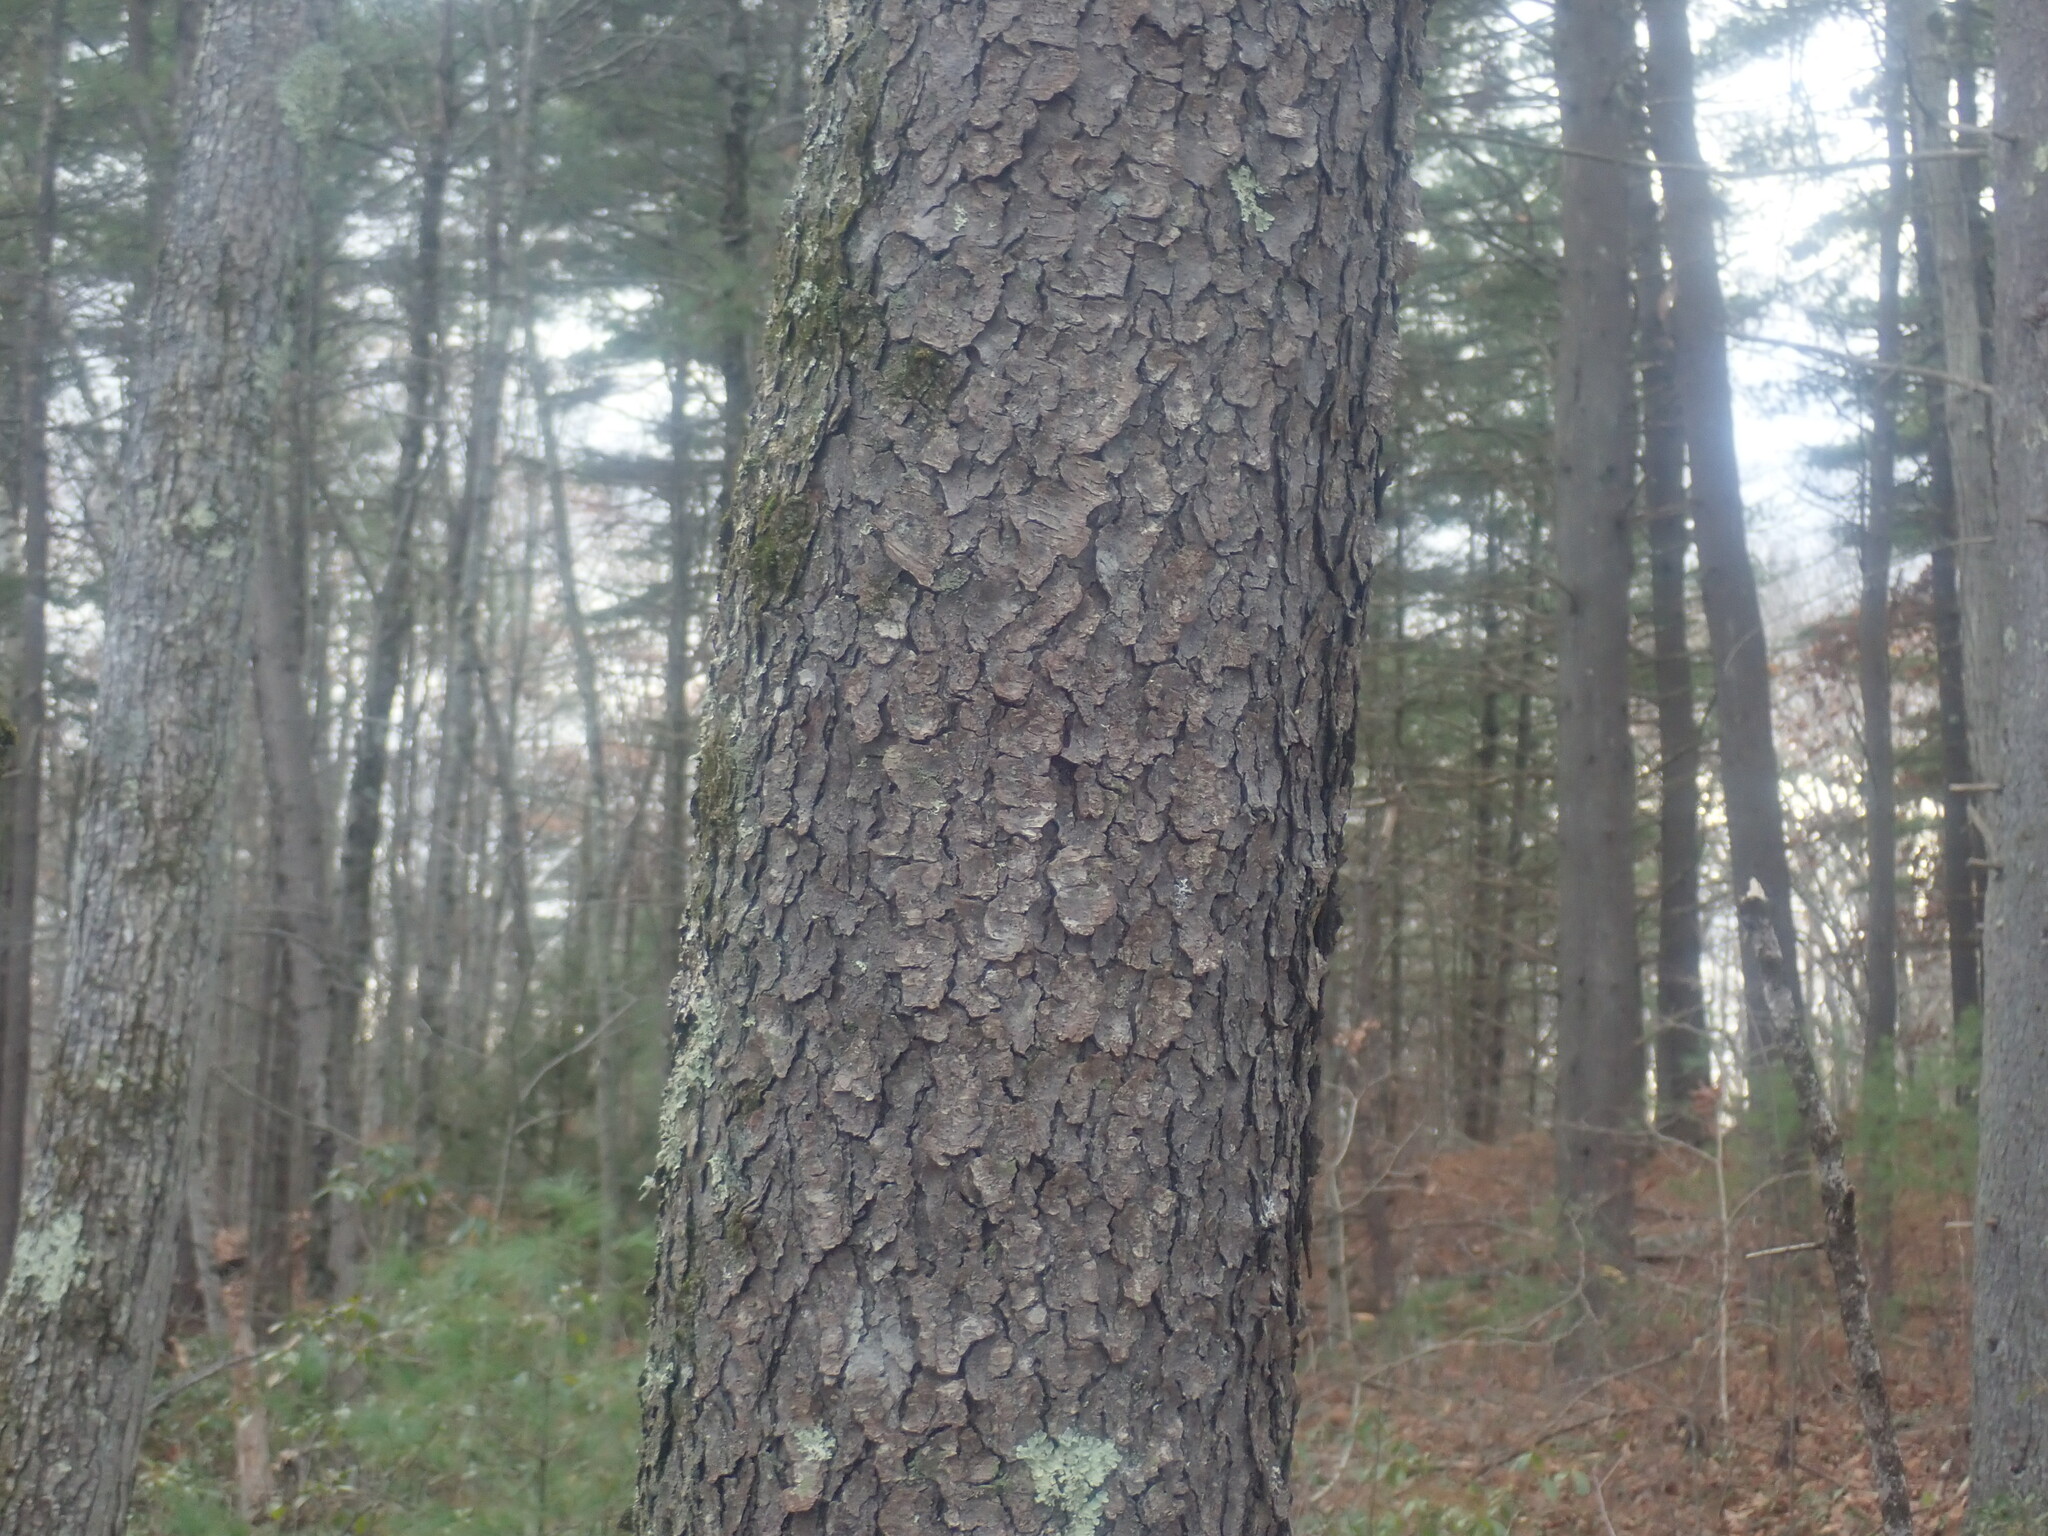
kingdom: Plantae
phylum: Tracheophyta
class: Magnoliopsida
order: Rosales
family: Rosaceae
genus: Prunus
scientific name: Prunus serotina
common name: Black cherry
